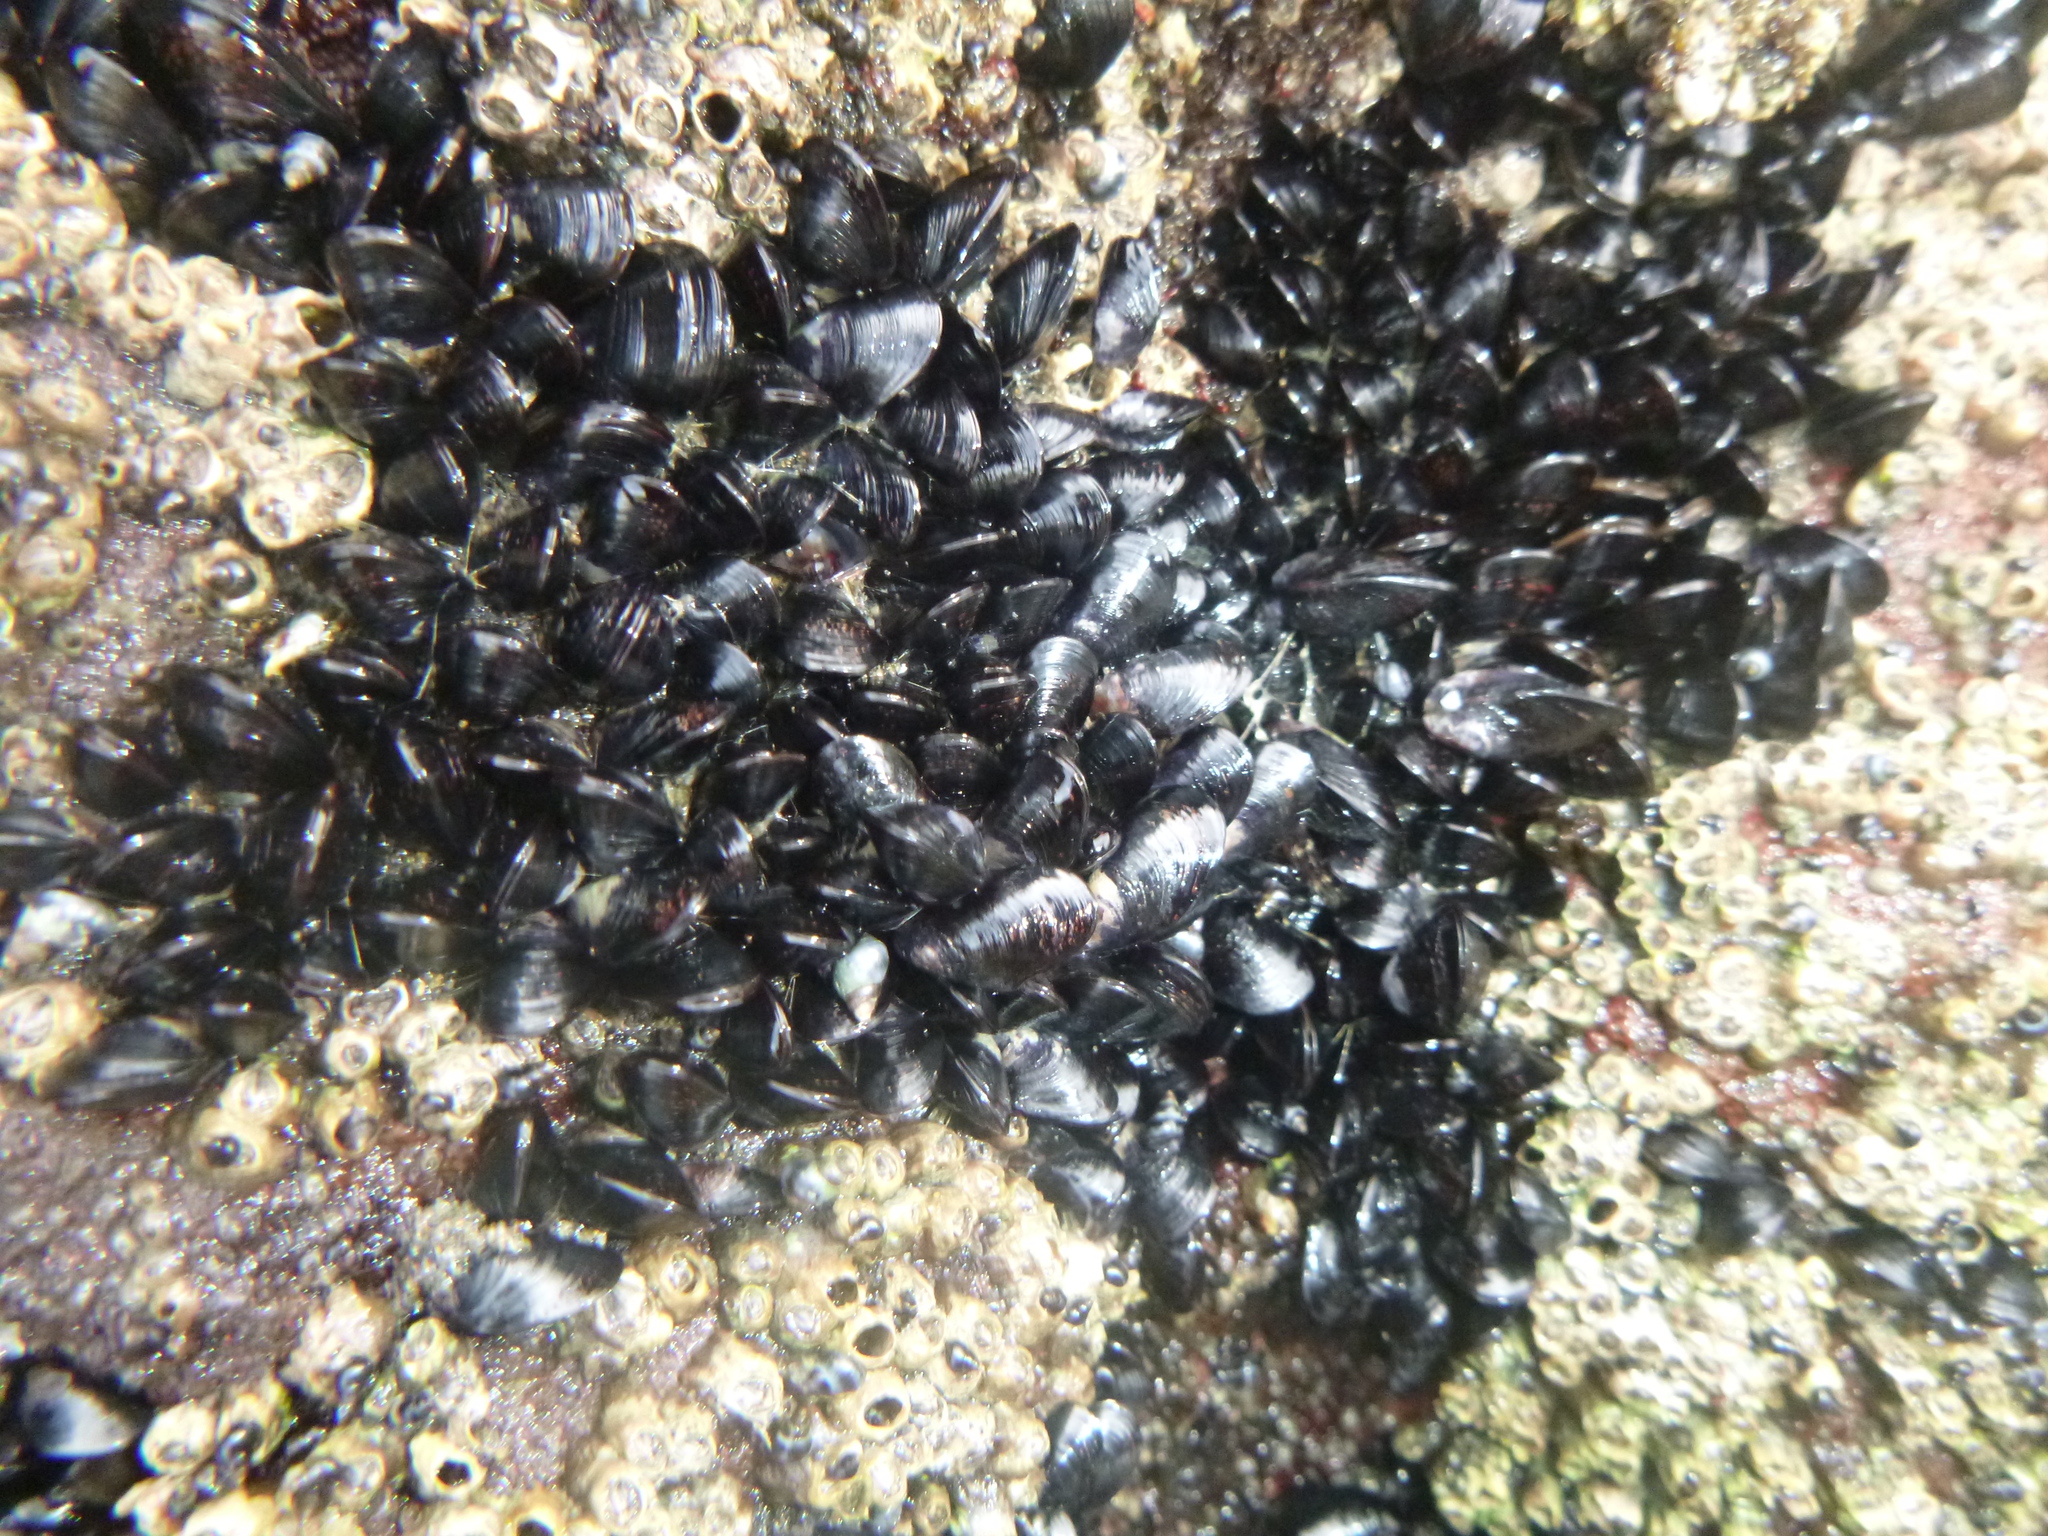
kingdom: Animalia
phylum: Mollusca
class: Bivalvia
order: Mytilida
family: Mytilidae
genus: Xenostrobus
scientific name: Xenostrobus neozelanicus
